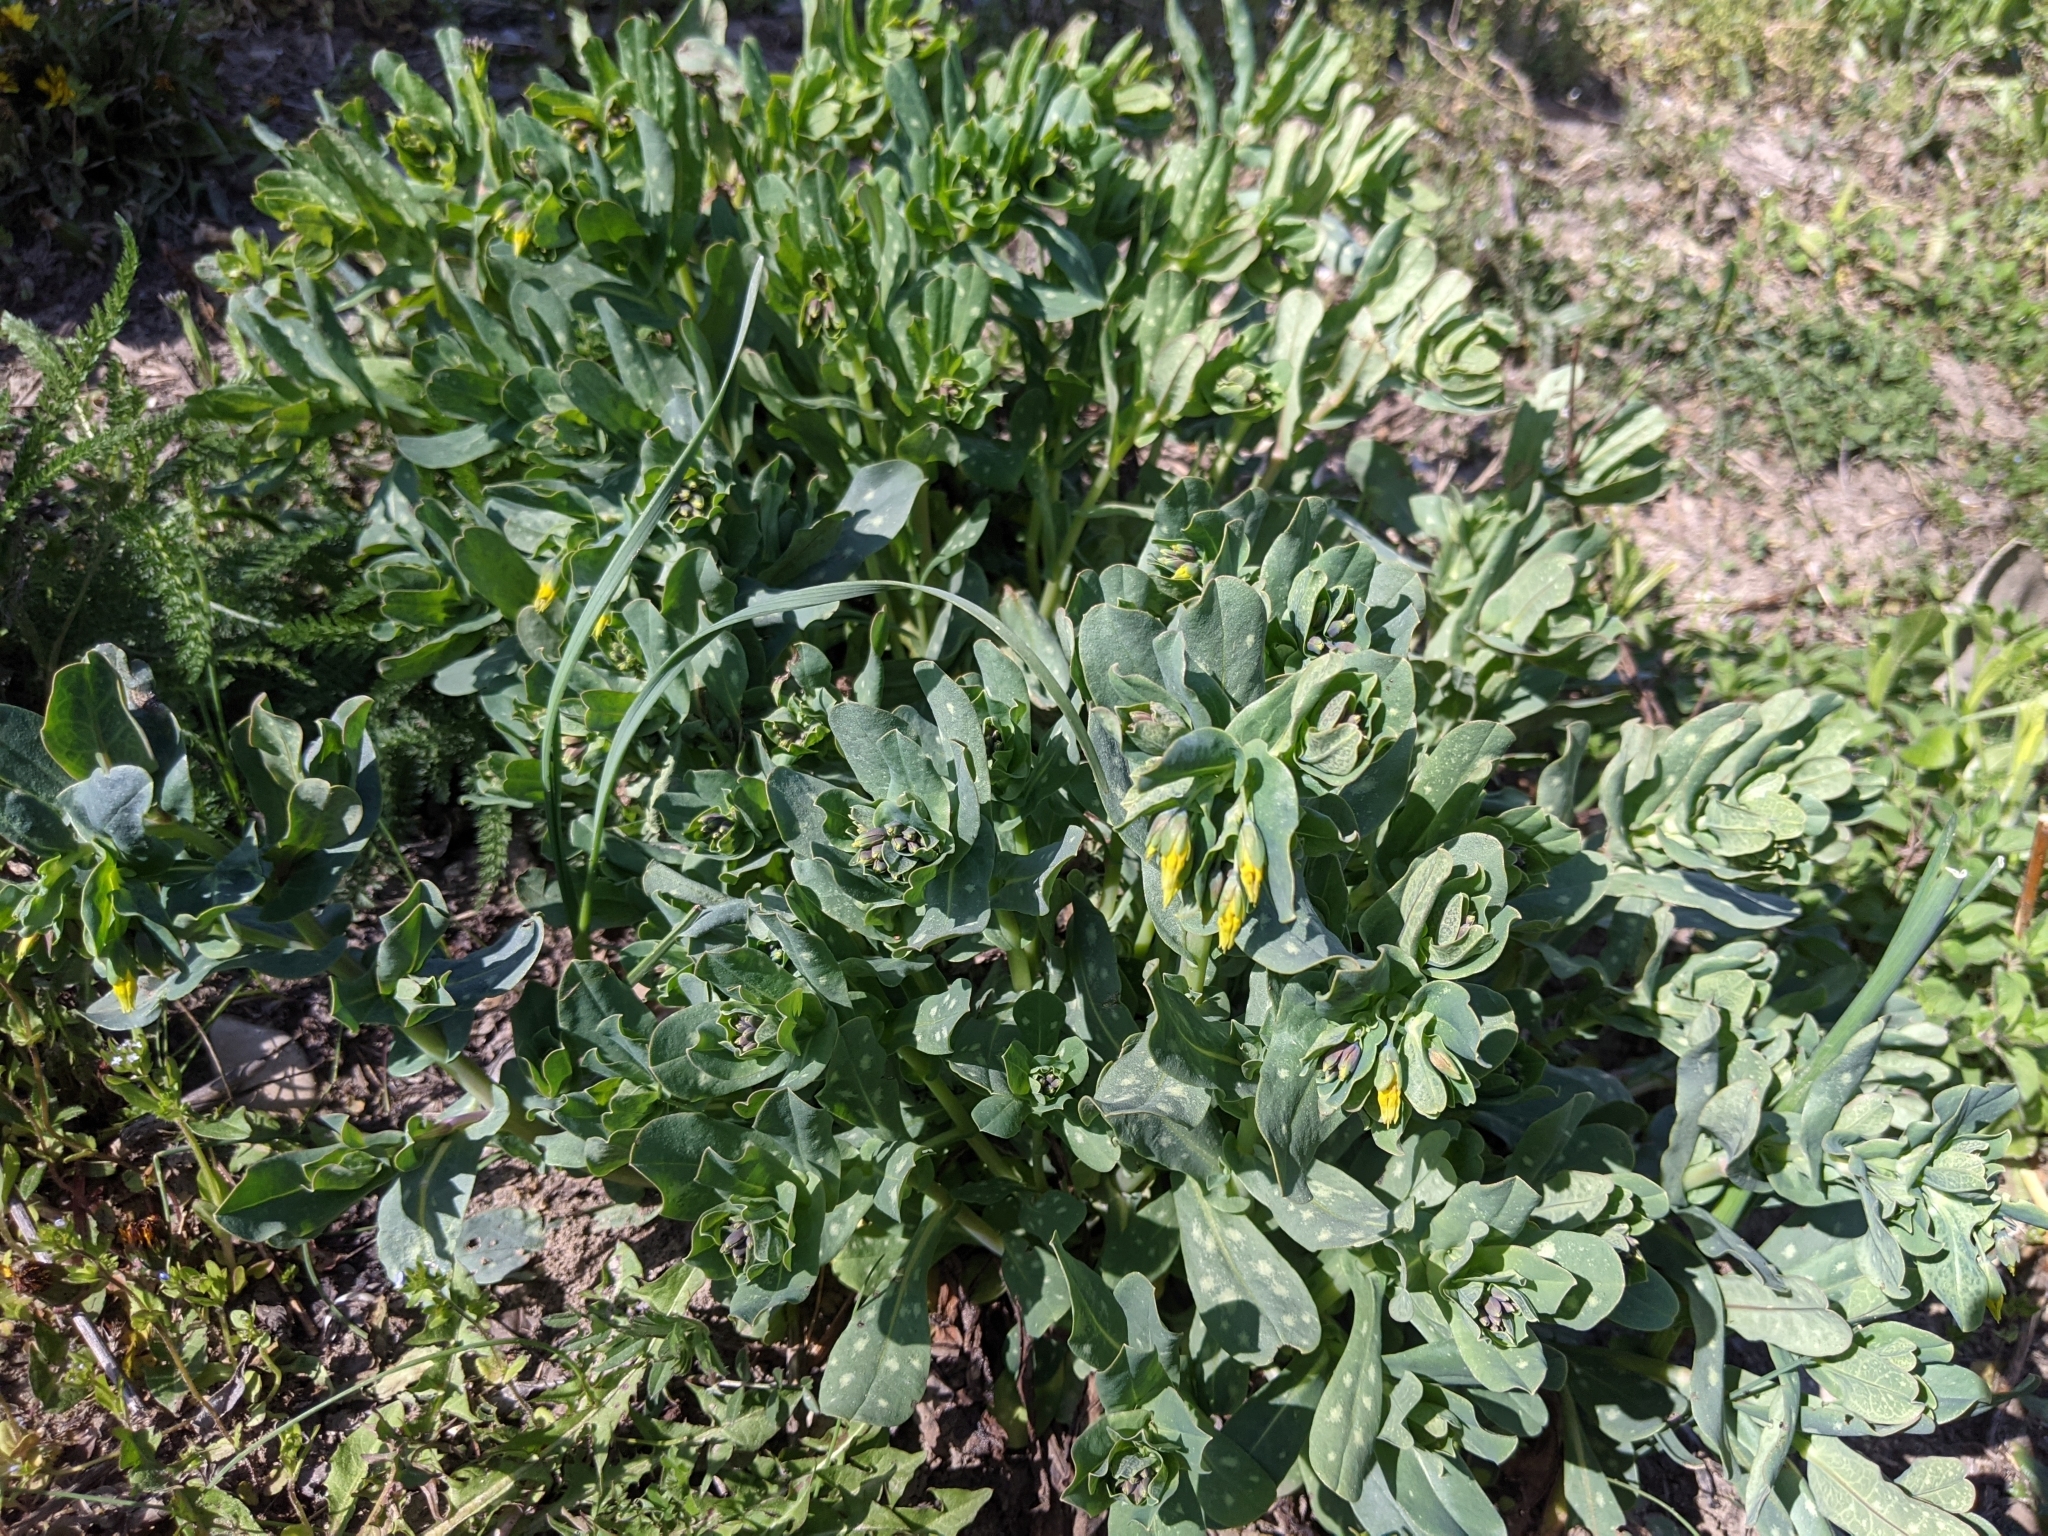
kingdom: Plantae
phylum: Tracheophyta
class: Magnoliopsida
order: Boraginales
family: Boraginaceae
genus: Cerinthe
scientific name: Cerinthe minor
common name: Lesser honeywort
